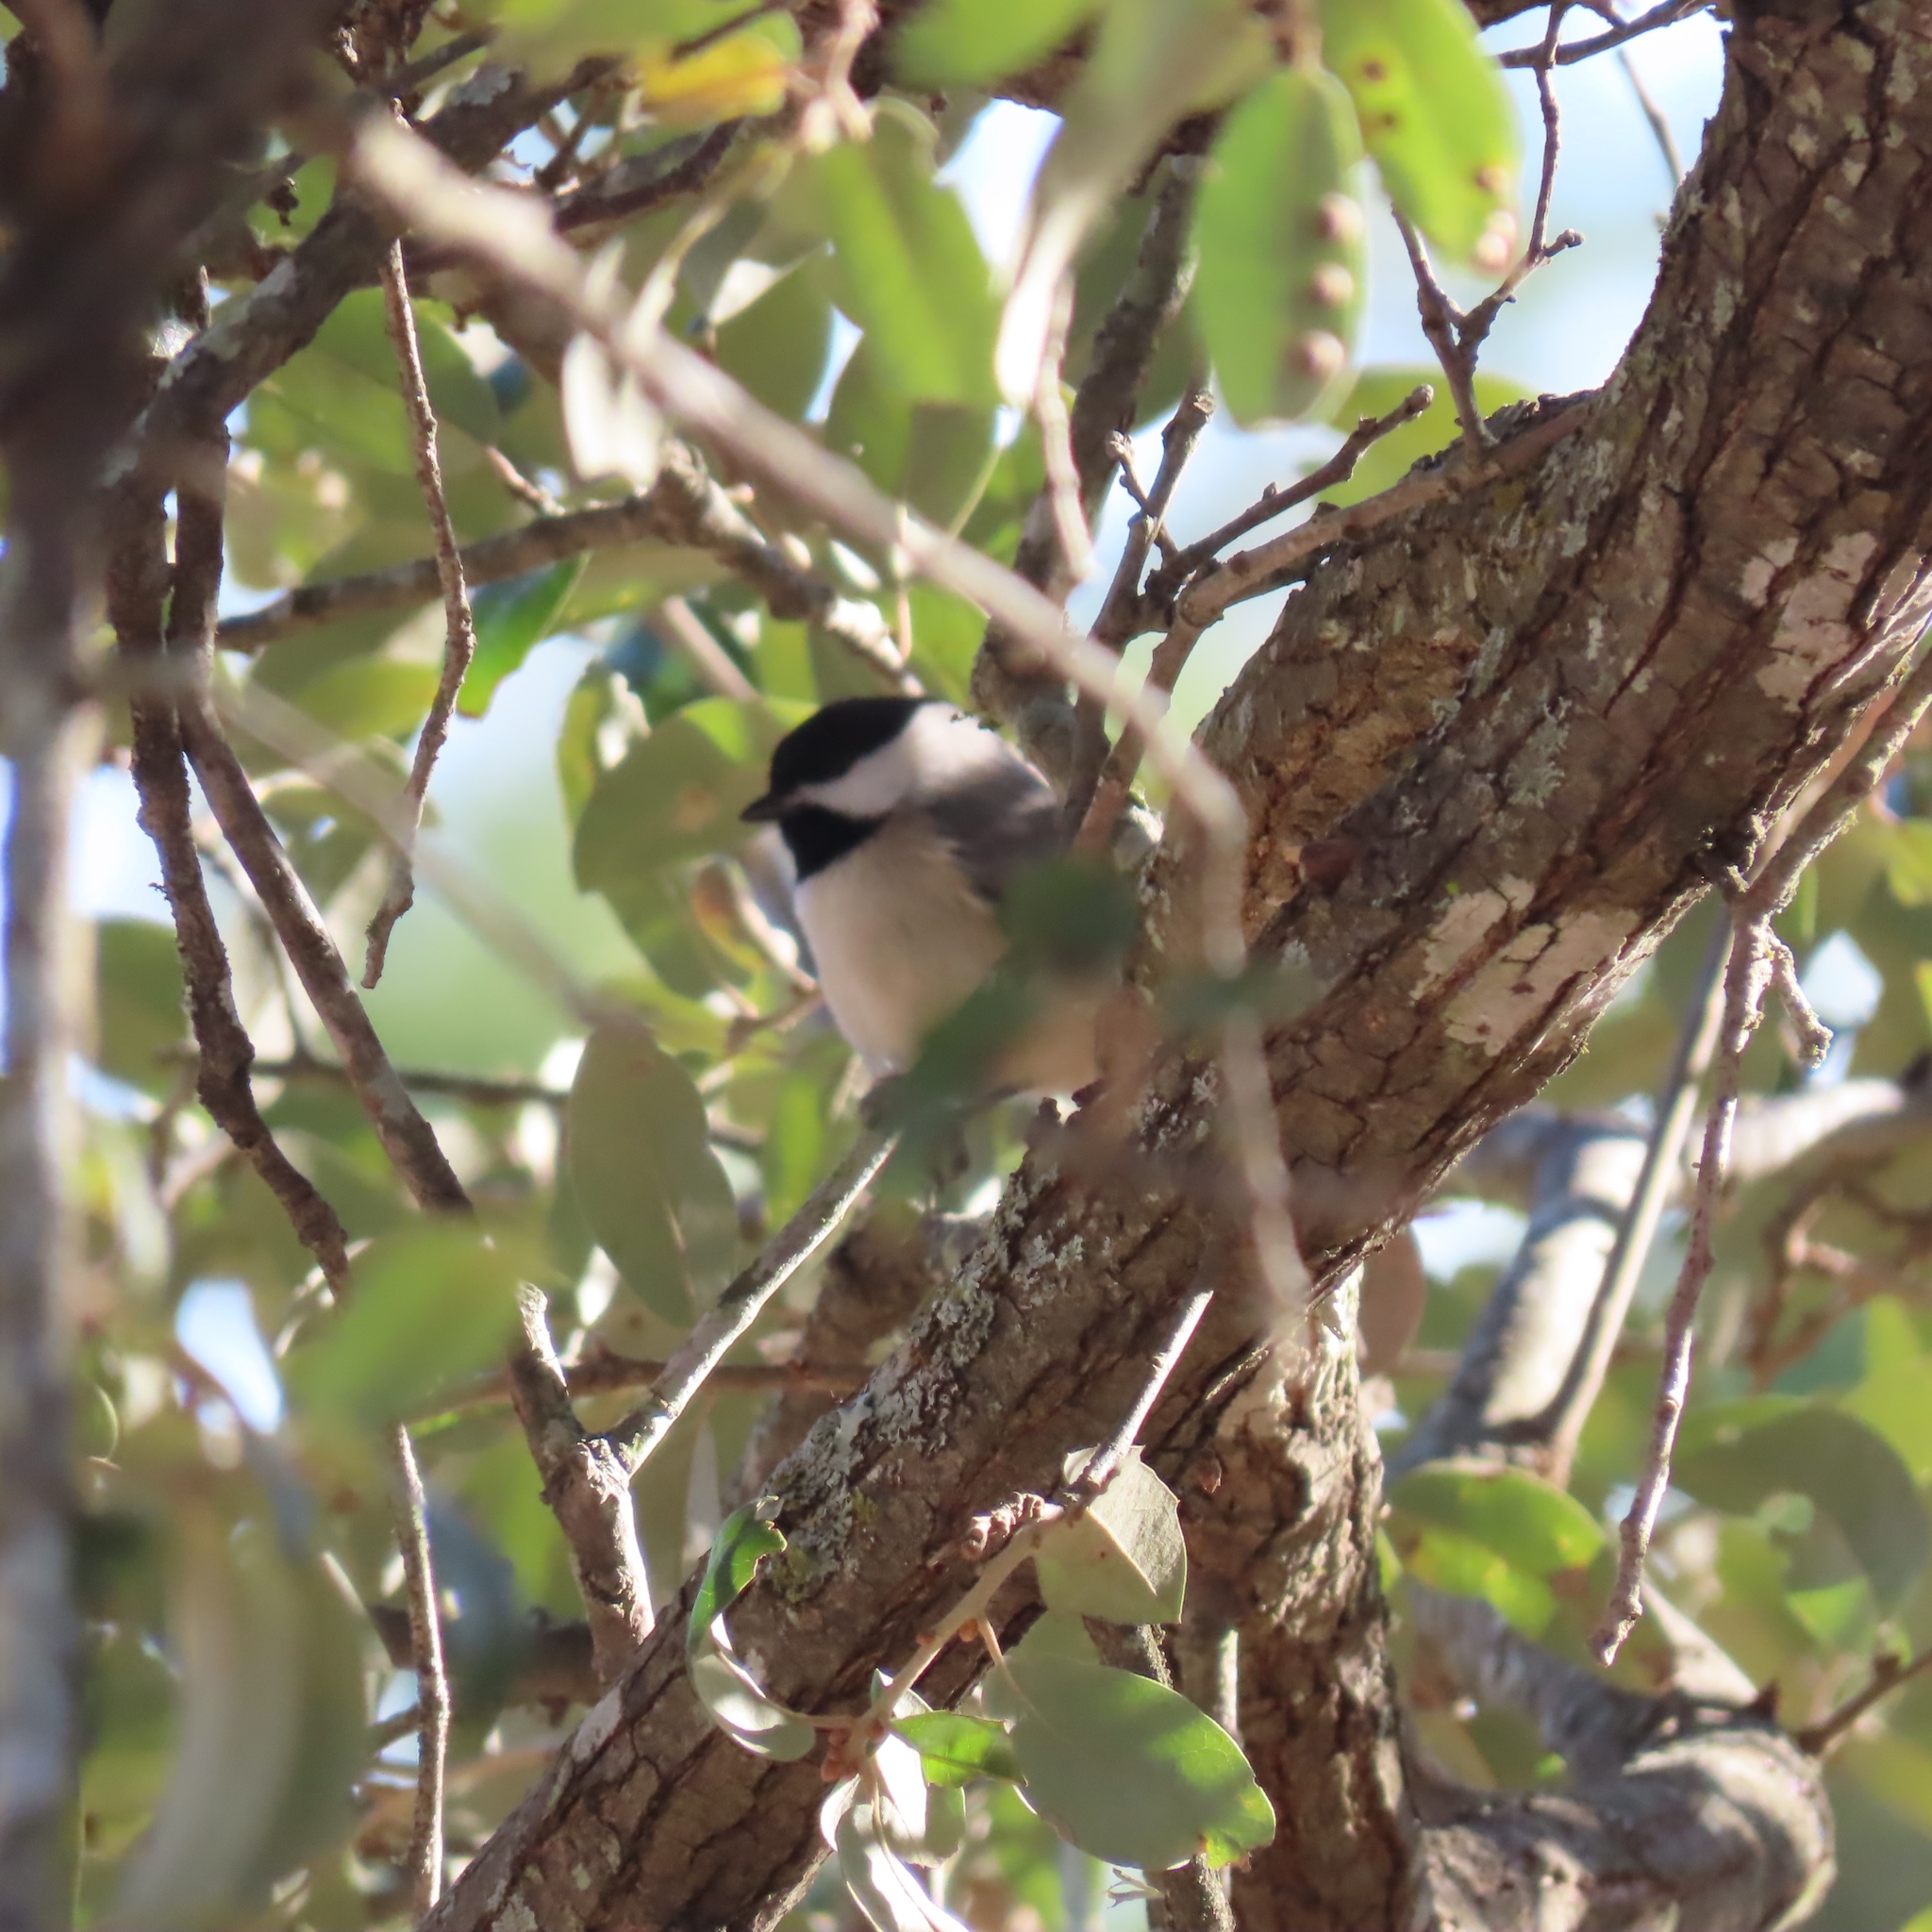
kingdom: Animalia
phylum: Chordata
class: Aves
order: Passeriformes
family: Paridae
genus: Poecile
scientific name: Poecile carolinensis
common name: Carolina chickadee
